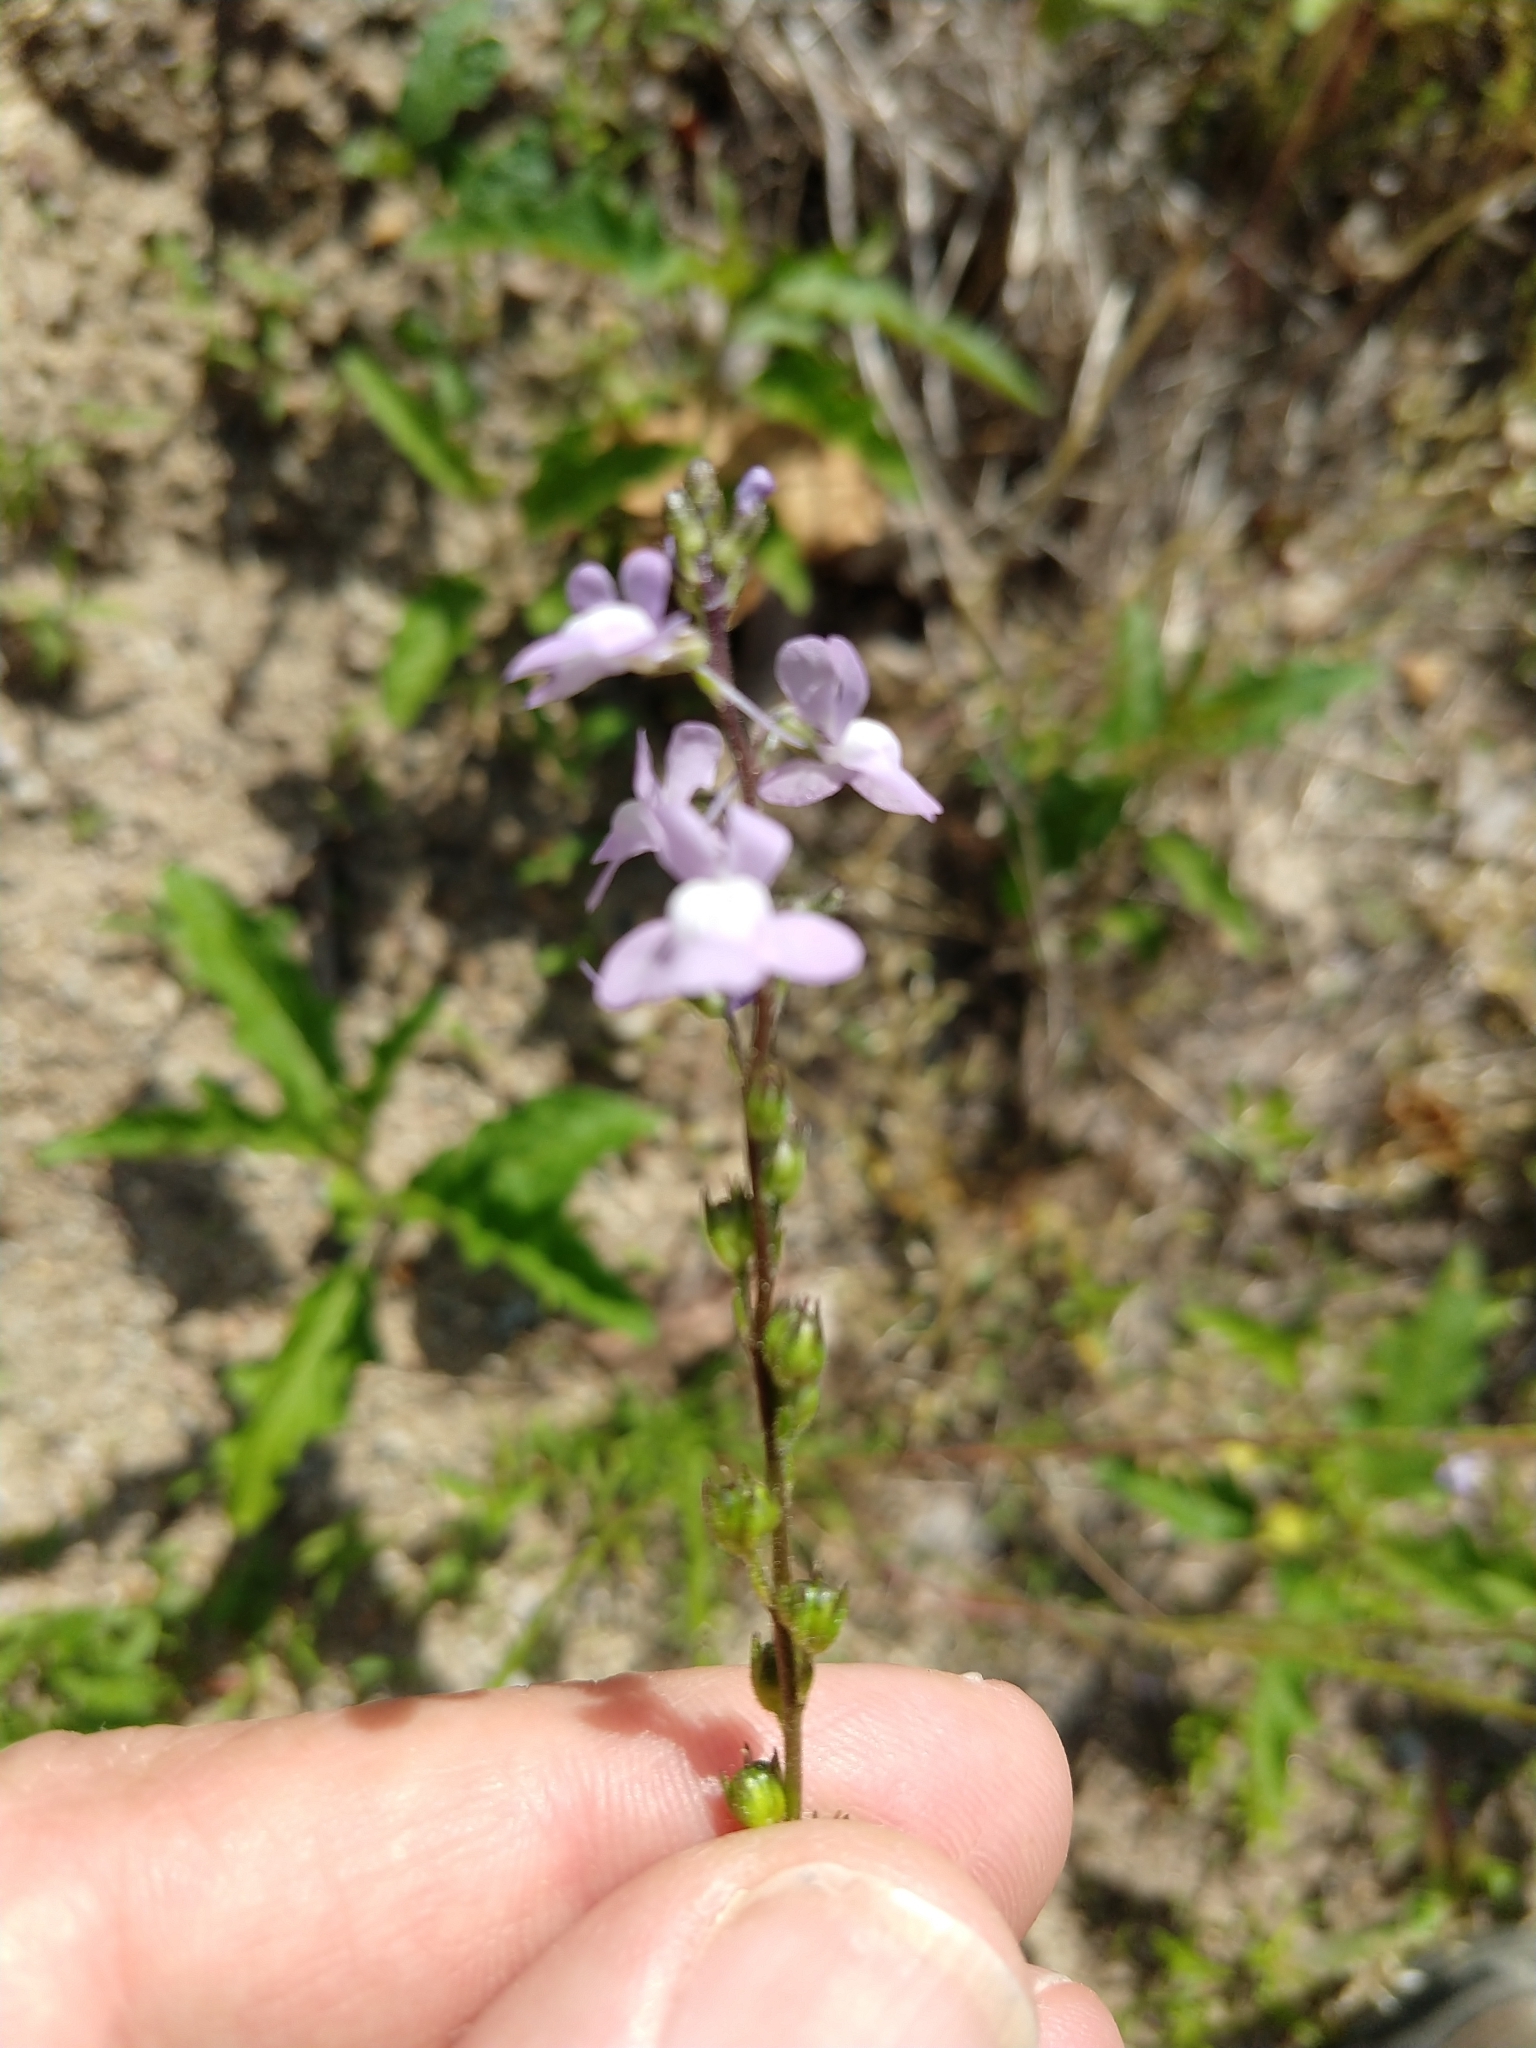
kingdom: Plantae
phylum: Tracheophyta
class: Magnoliopsida
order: Lamiales
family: Plantaginaceae
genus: Nuttallanthus
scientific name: Nuttallanthus canadensis
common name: Blue toadflax
